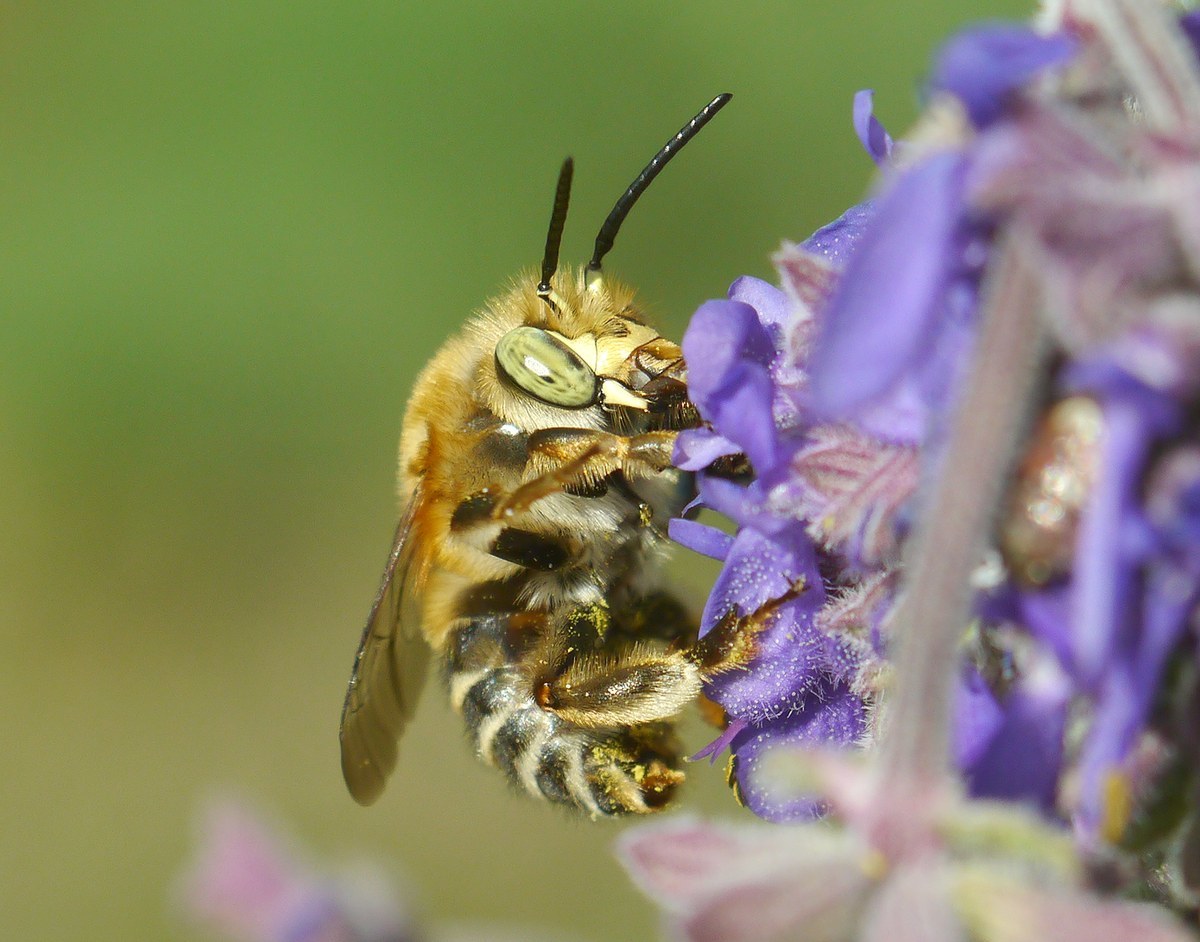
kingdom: Animalia
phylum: Arthropoda
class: Insecta
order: Hymenoptera
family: Apidae
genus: Habropoda
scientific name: Habropoda zonatula
